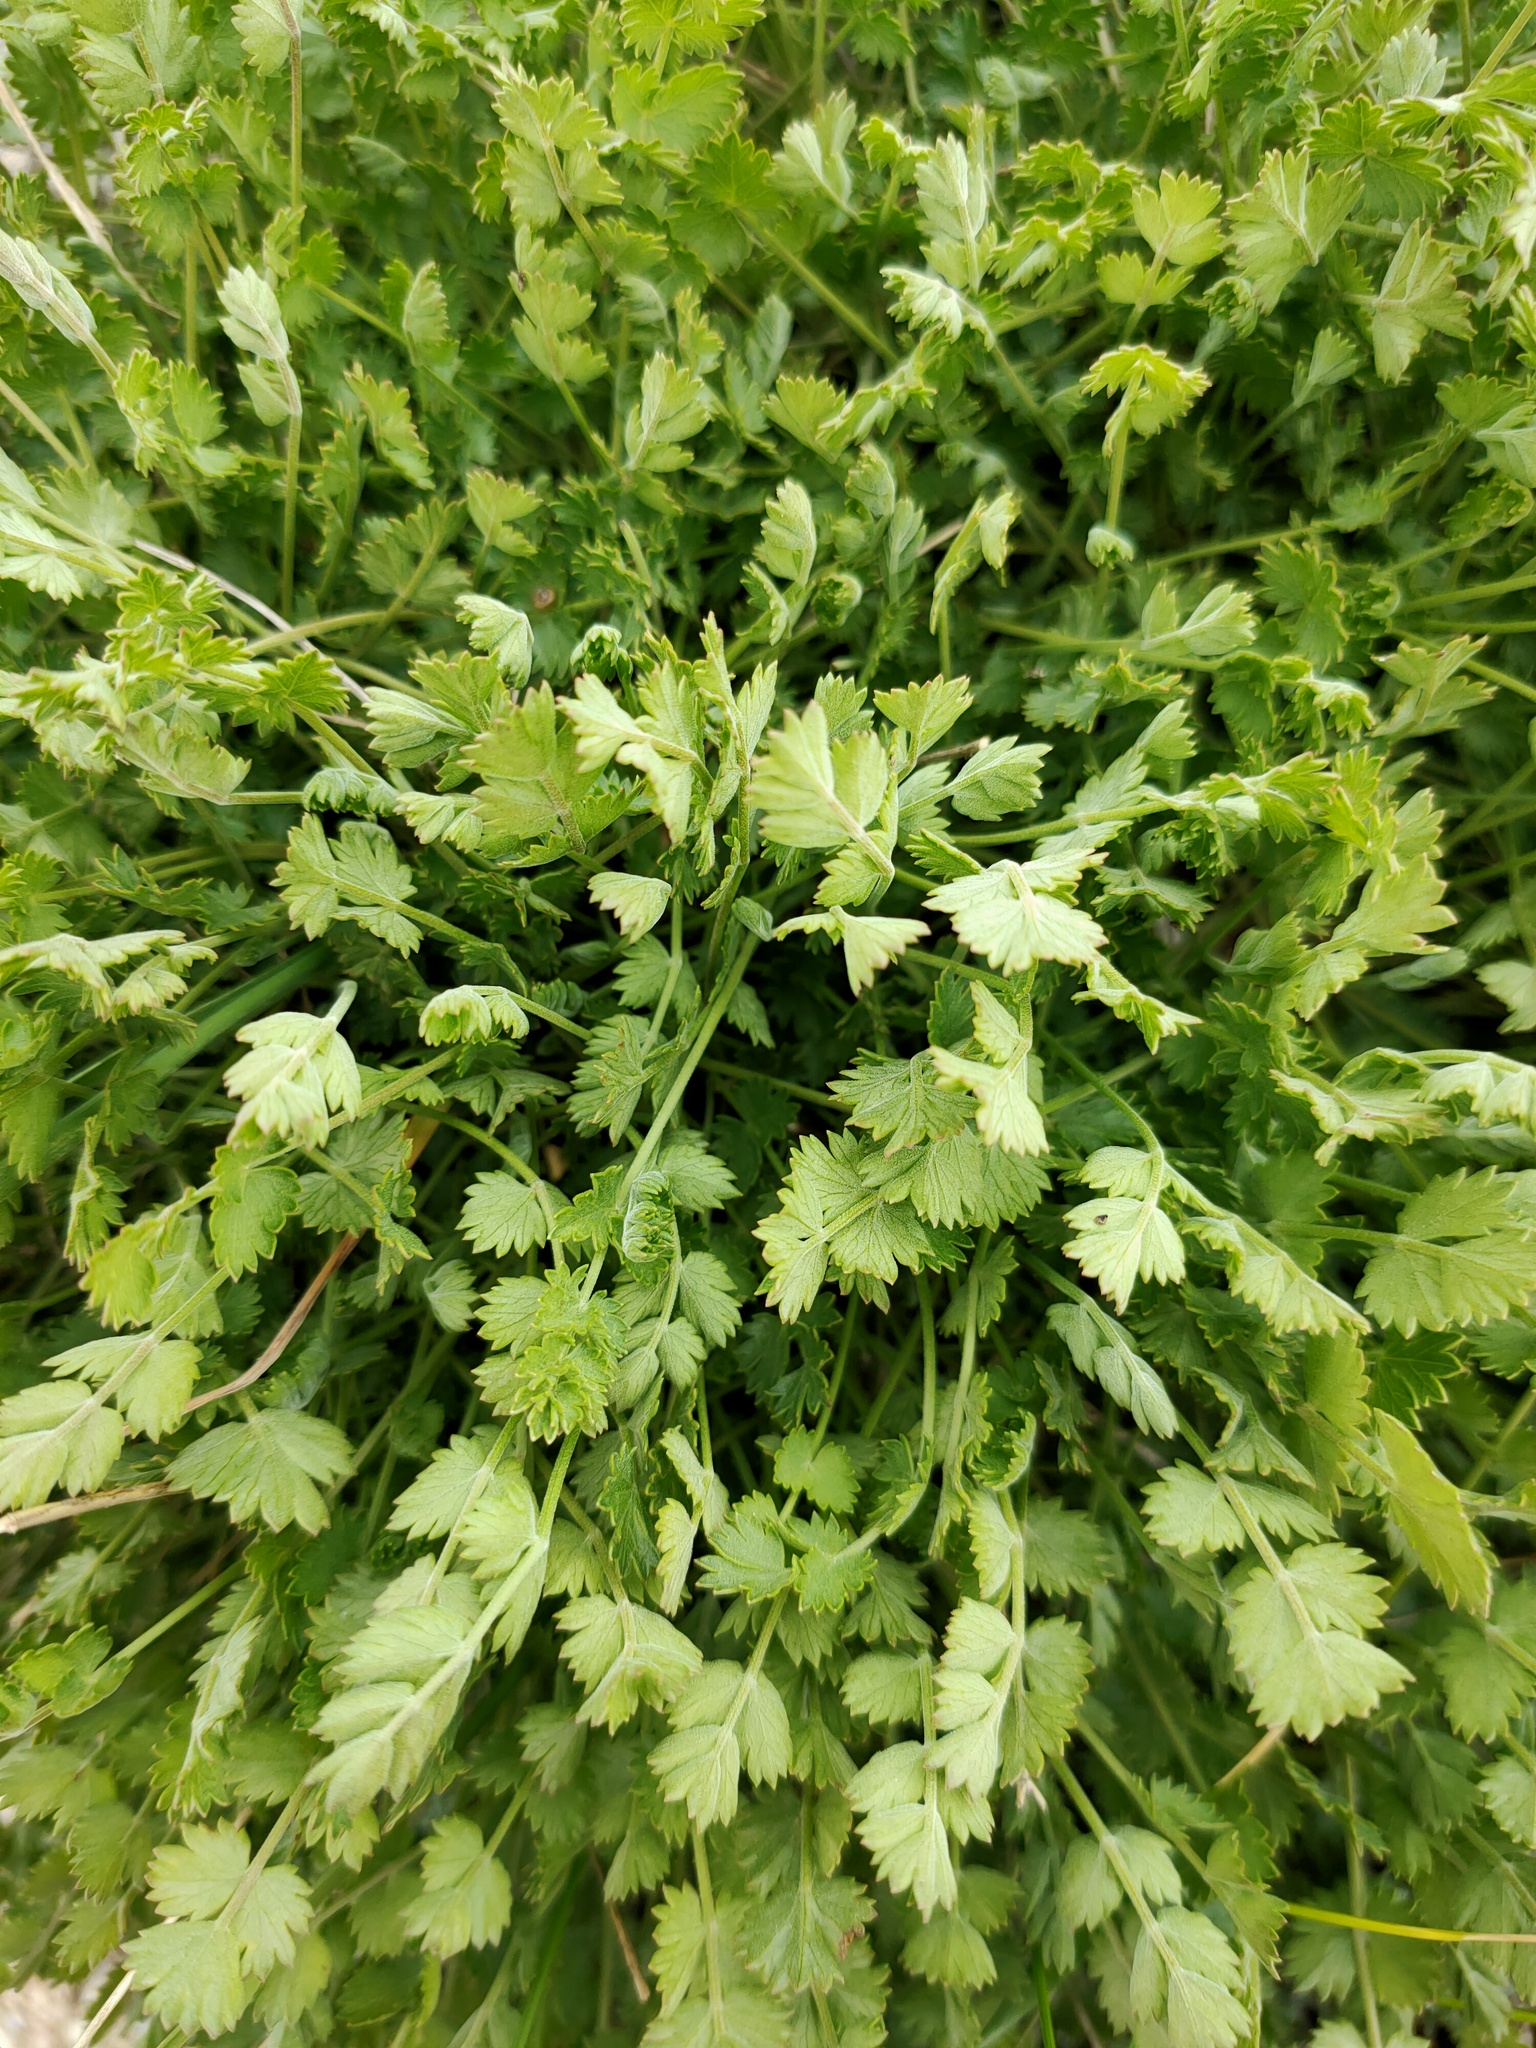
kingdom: Plantae
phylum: Tracheophyta
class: Magnoliopsida
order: Apiales
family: Apiaceae
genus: Coriandrum
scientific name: Coriandrum sativum
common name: Coriander
